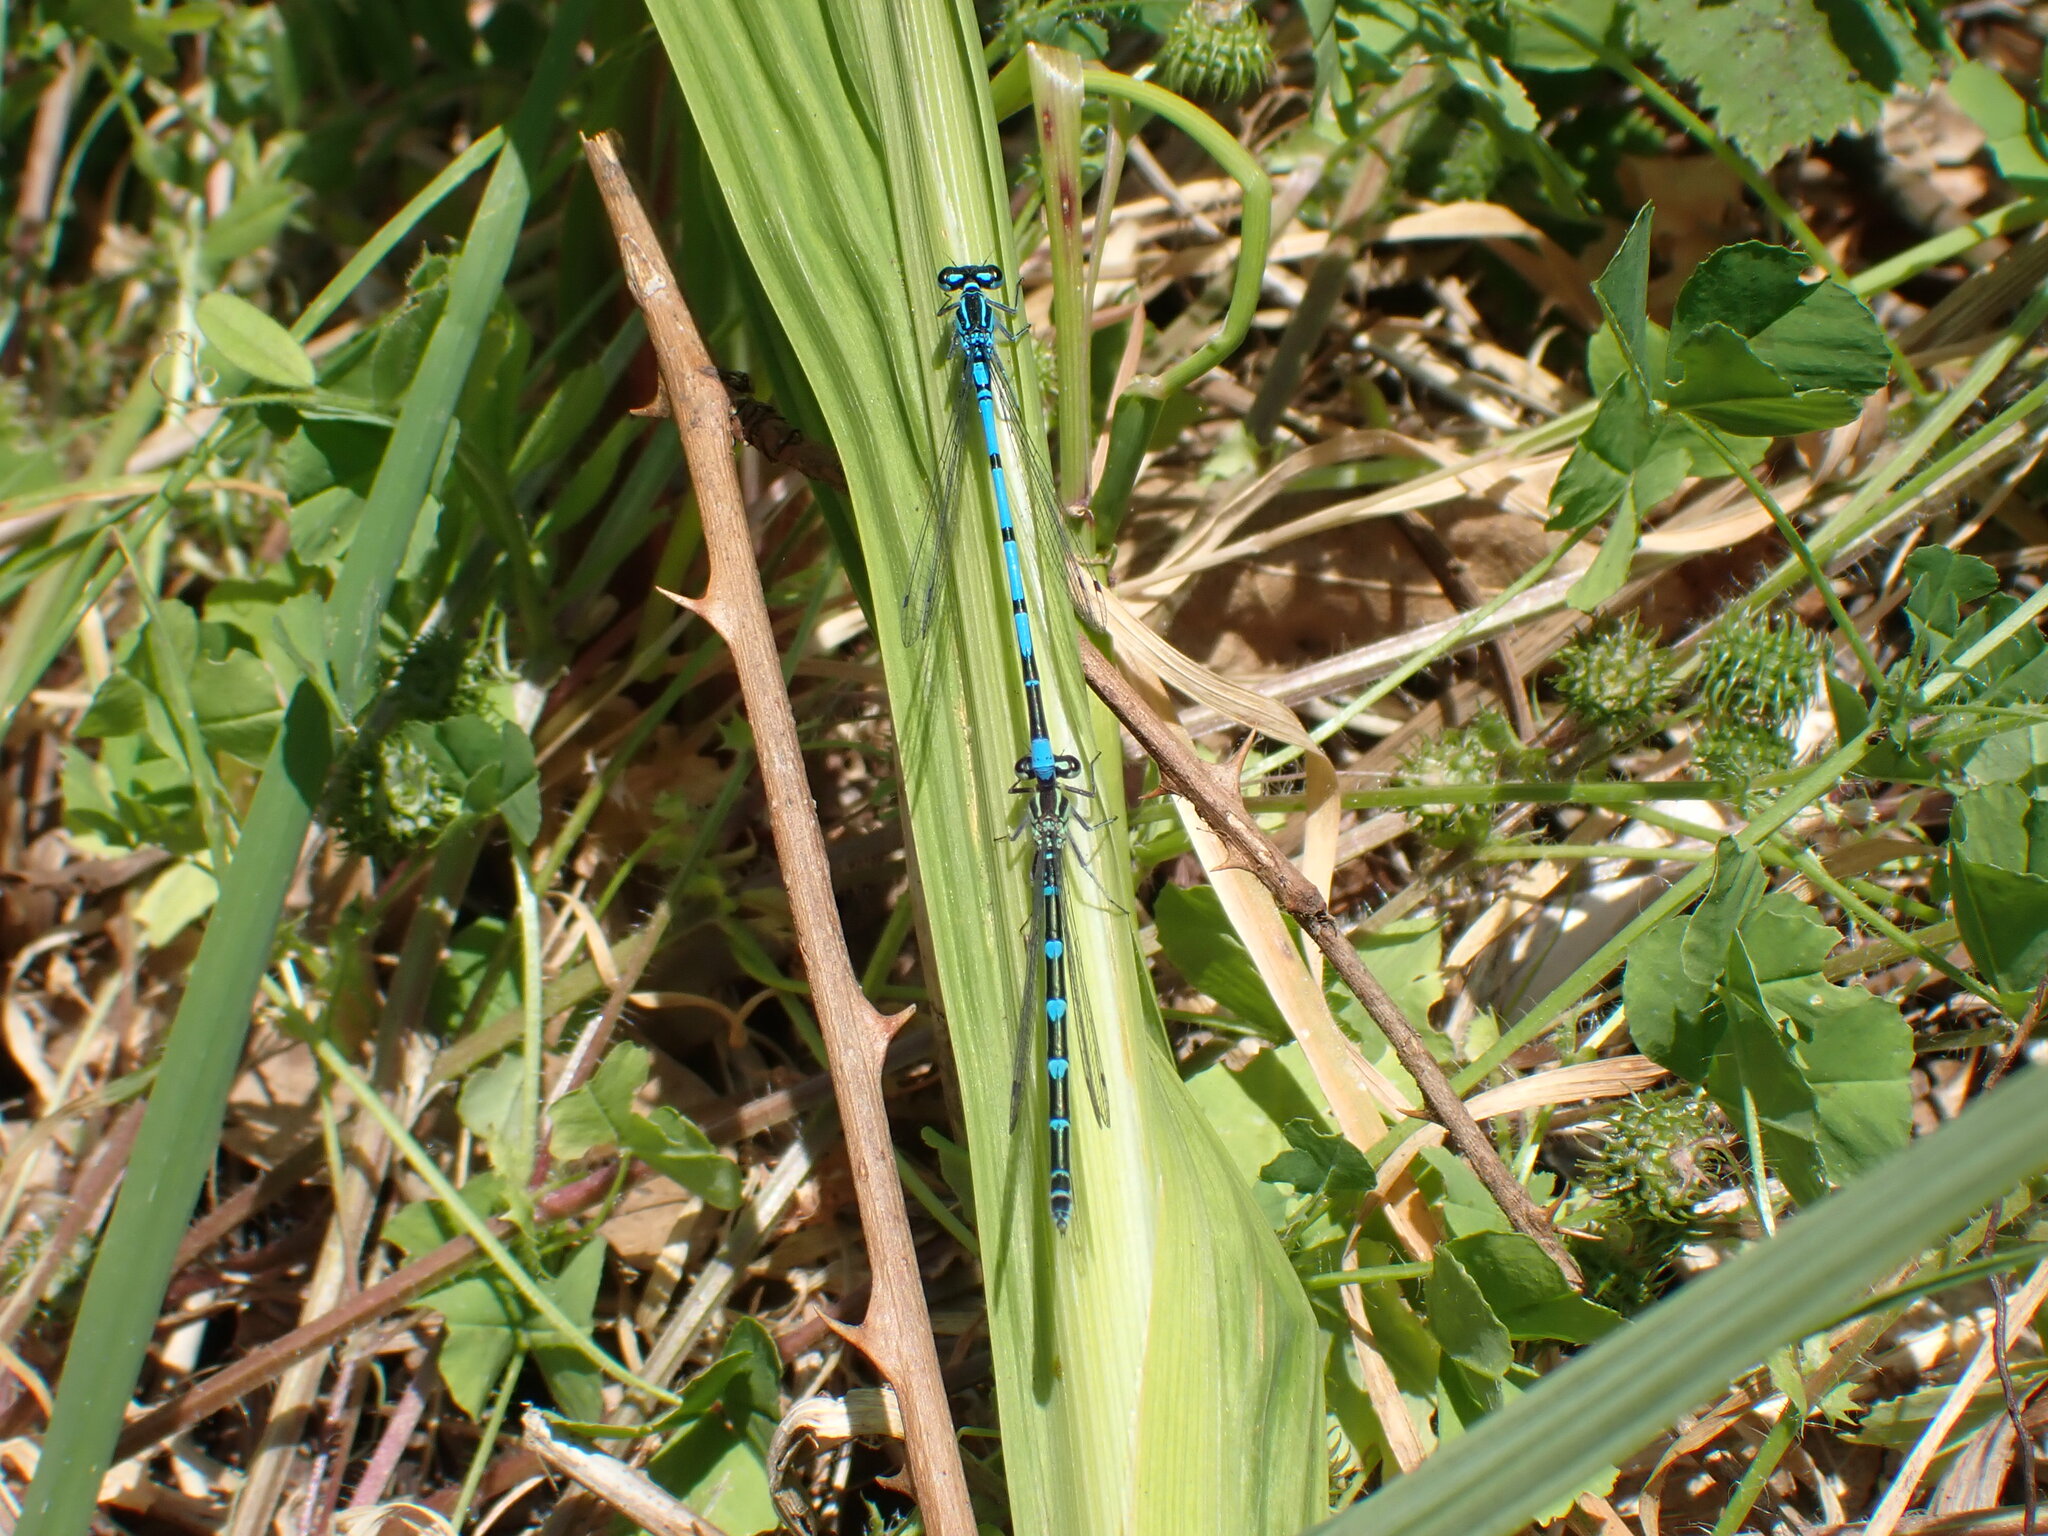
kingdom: Animalia
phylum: Arthropoda
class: Insecta
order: Odonata
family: Coenagrionidae
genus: Coenagrion
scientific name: Coenagrion puella
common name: Azure damselfly
